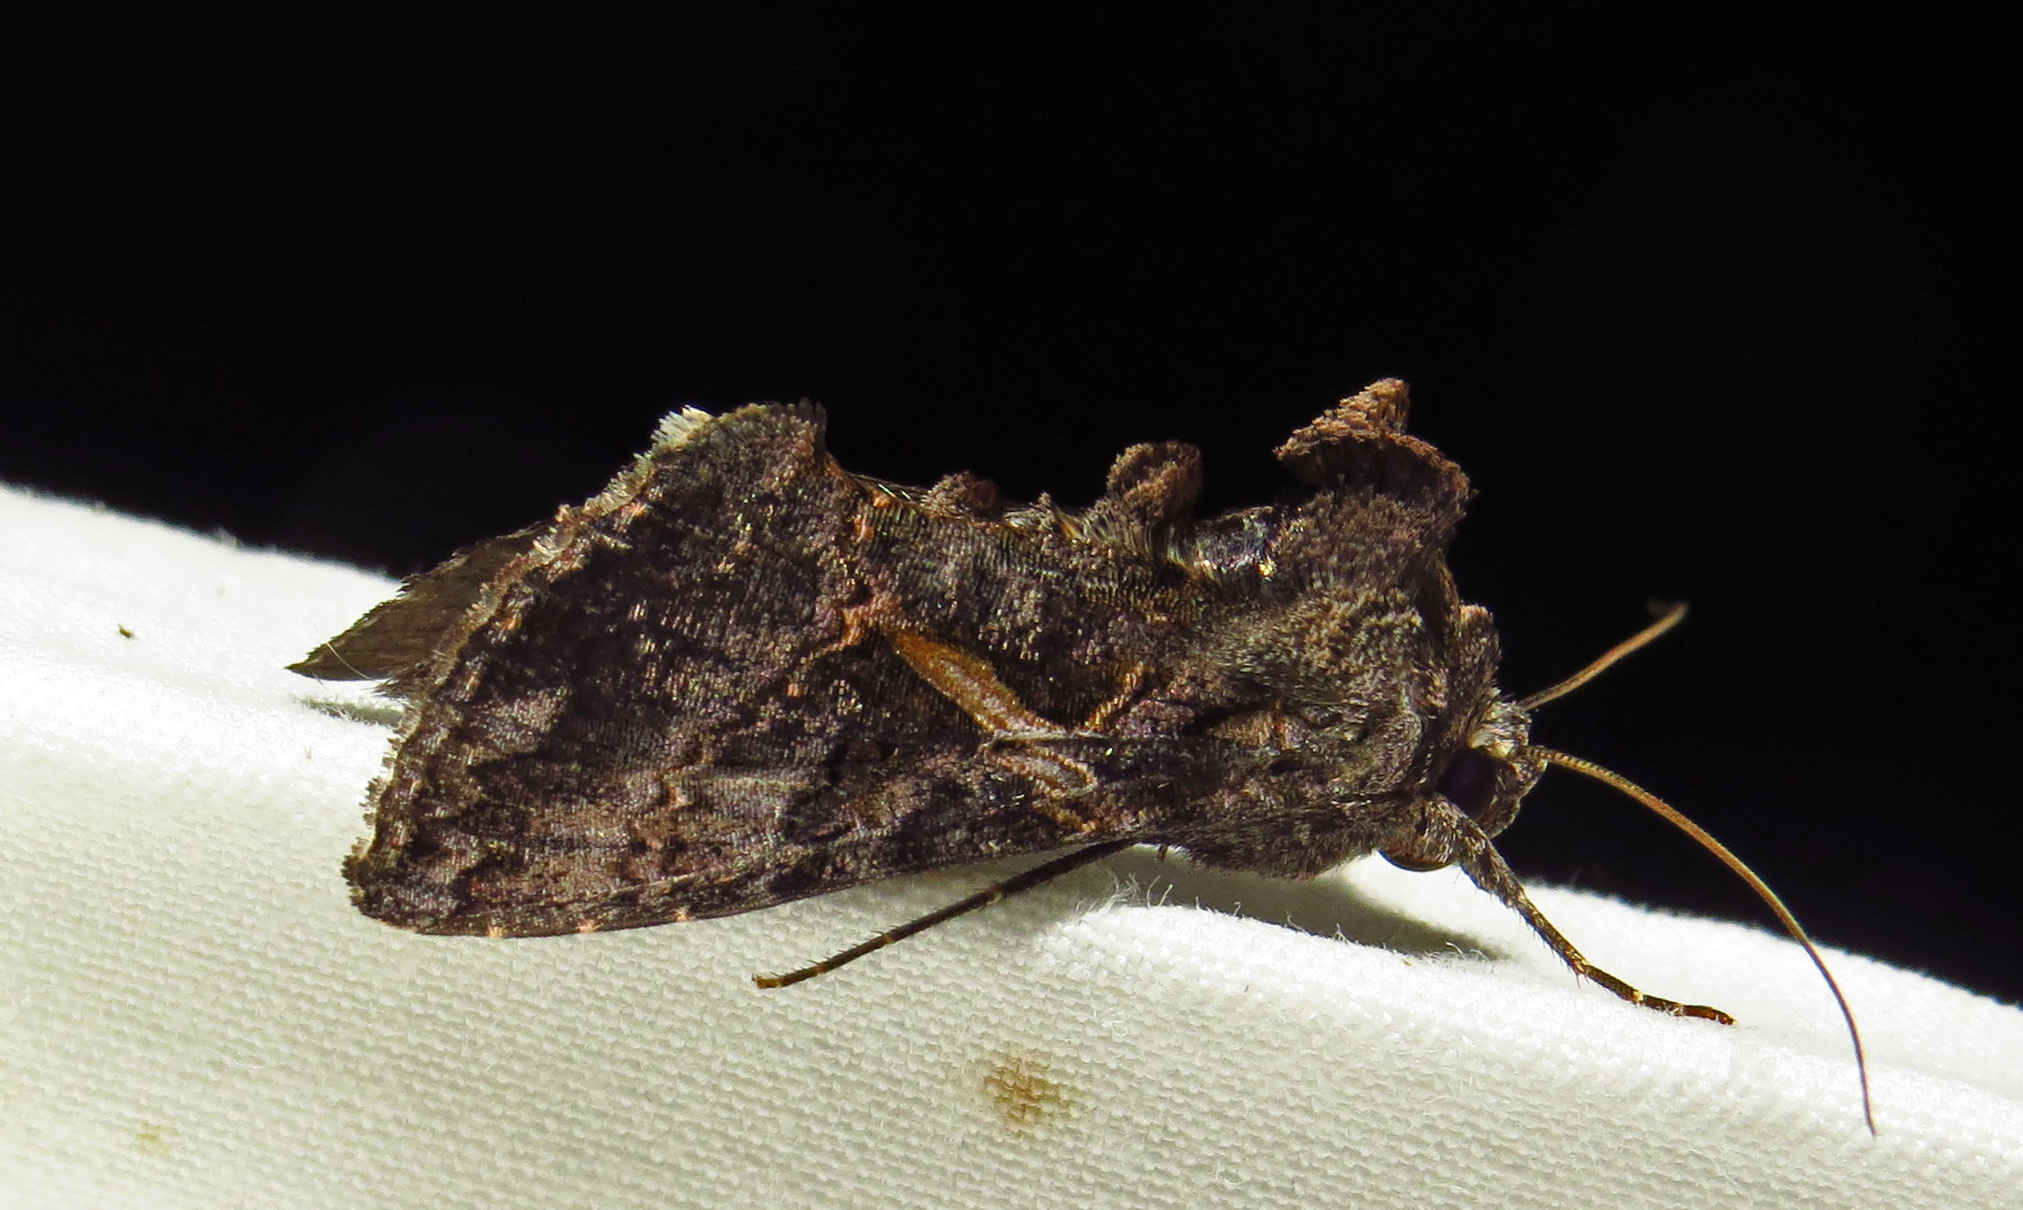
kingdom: Animalia
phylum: Arthropoda
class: Insecta
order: Lepidoptera
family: Noctuidae
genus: Ctenoplusia
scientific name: Ctenoplusia oxygramma
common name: Sharp-stigma looper moth
